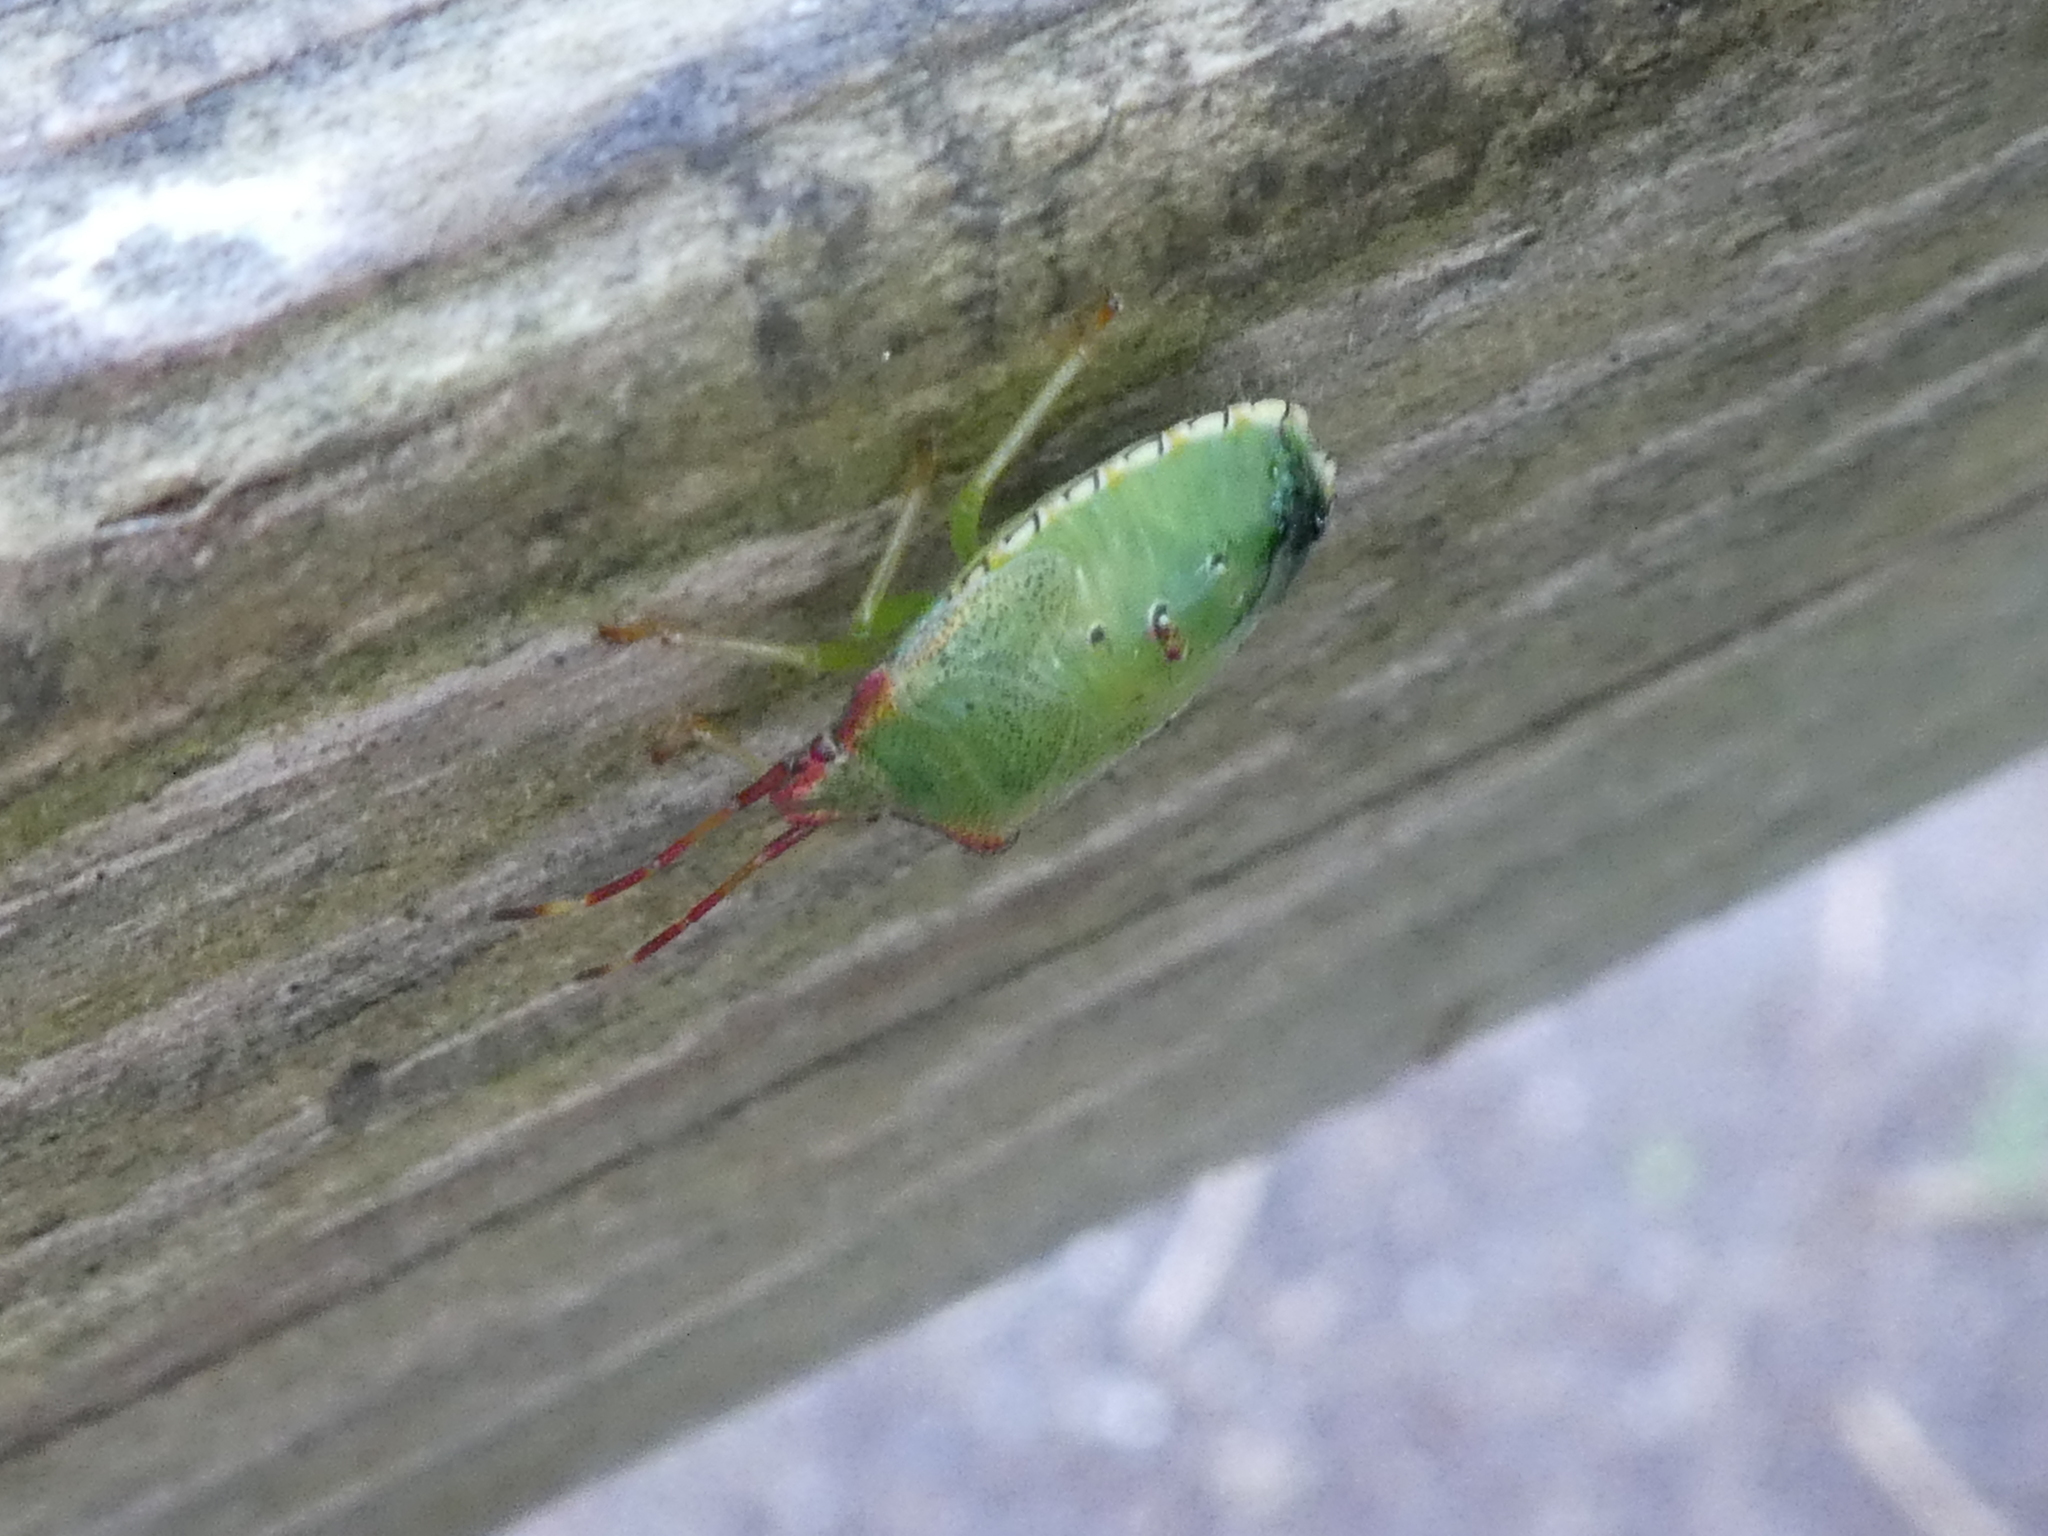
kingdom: Animalia
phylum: Arthropoda
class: Insecta
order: Hemiptera
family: Acanthosomatidae
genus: Acanthosoma
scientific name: Acanthosoma haemorrhoidale
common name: Hawthorn shieldbug
